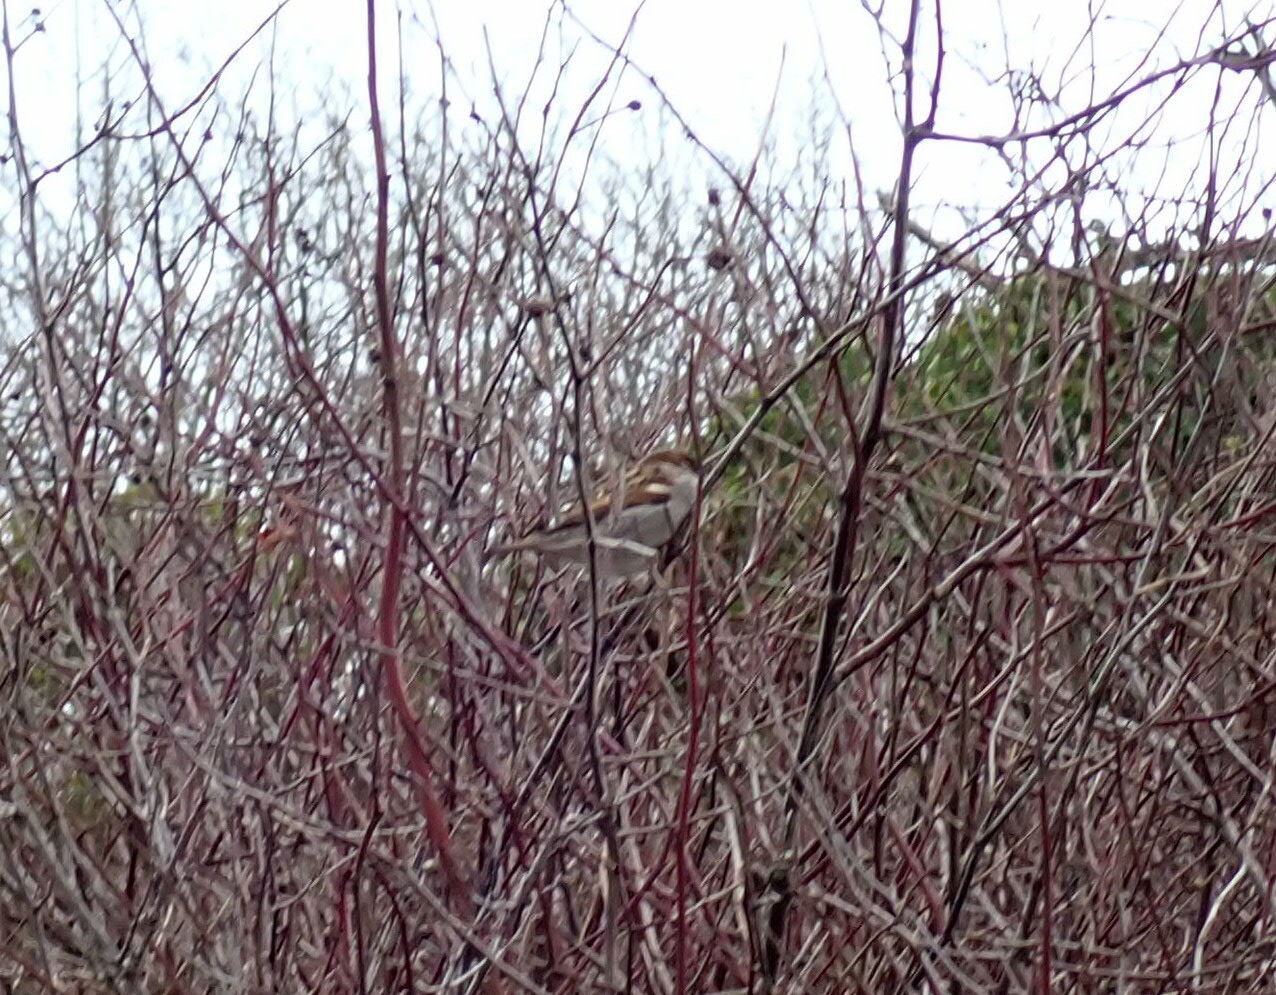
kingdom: Animalia
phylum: Chordata
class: Aves
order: Passeriformes
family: Passeridae
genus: Passer
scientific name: Passer domesticus
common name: House sparrow
